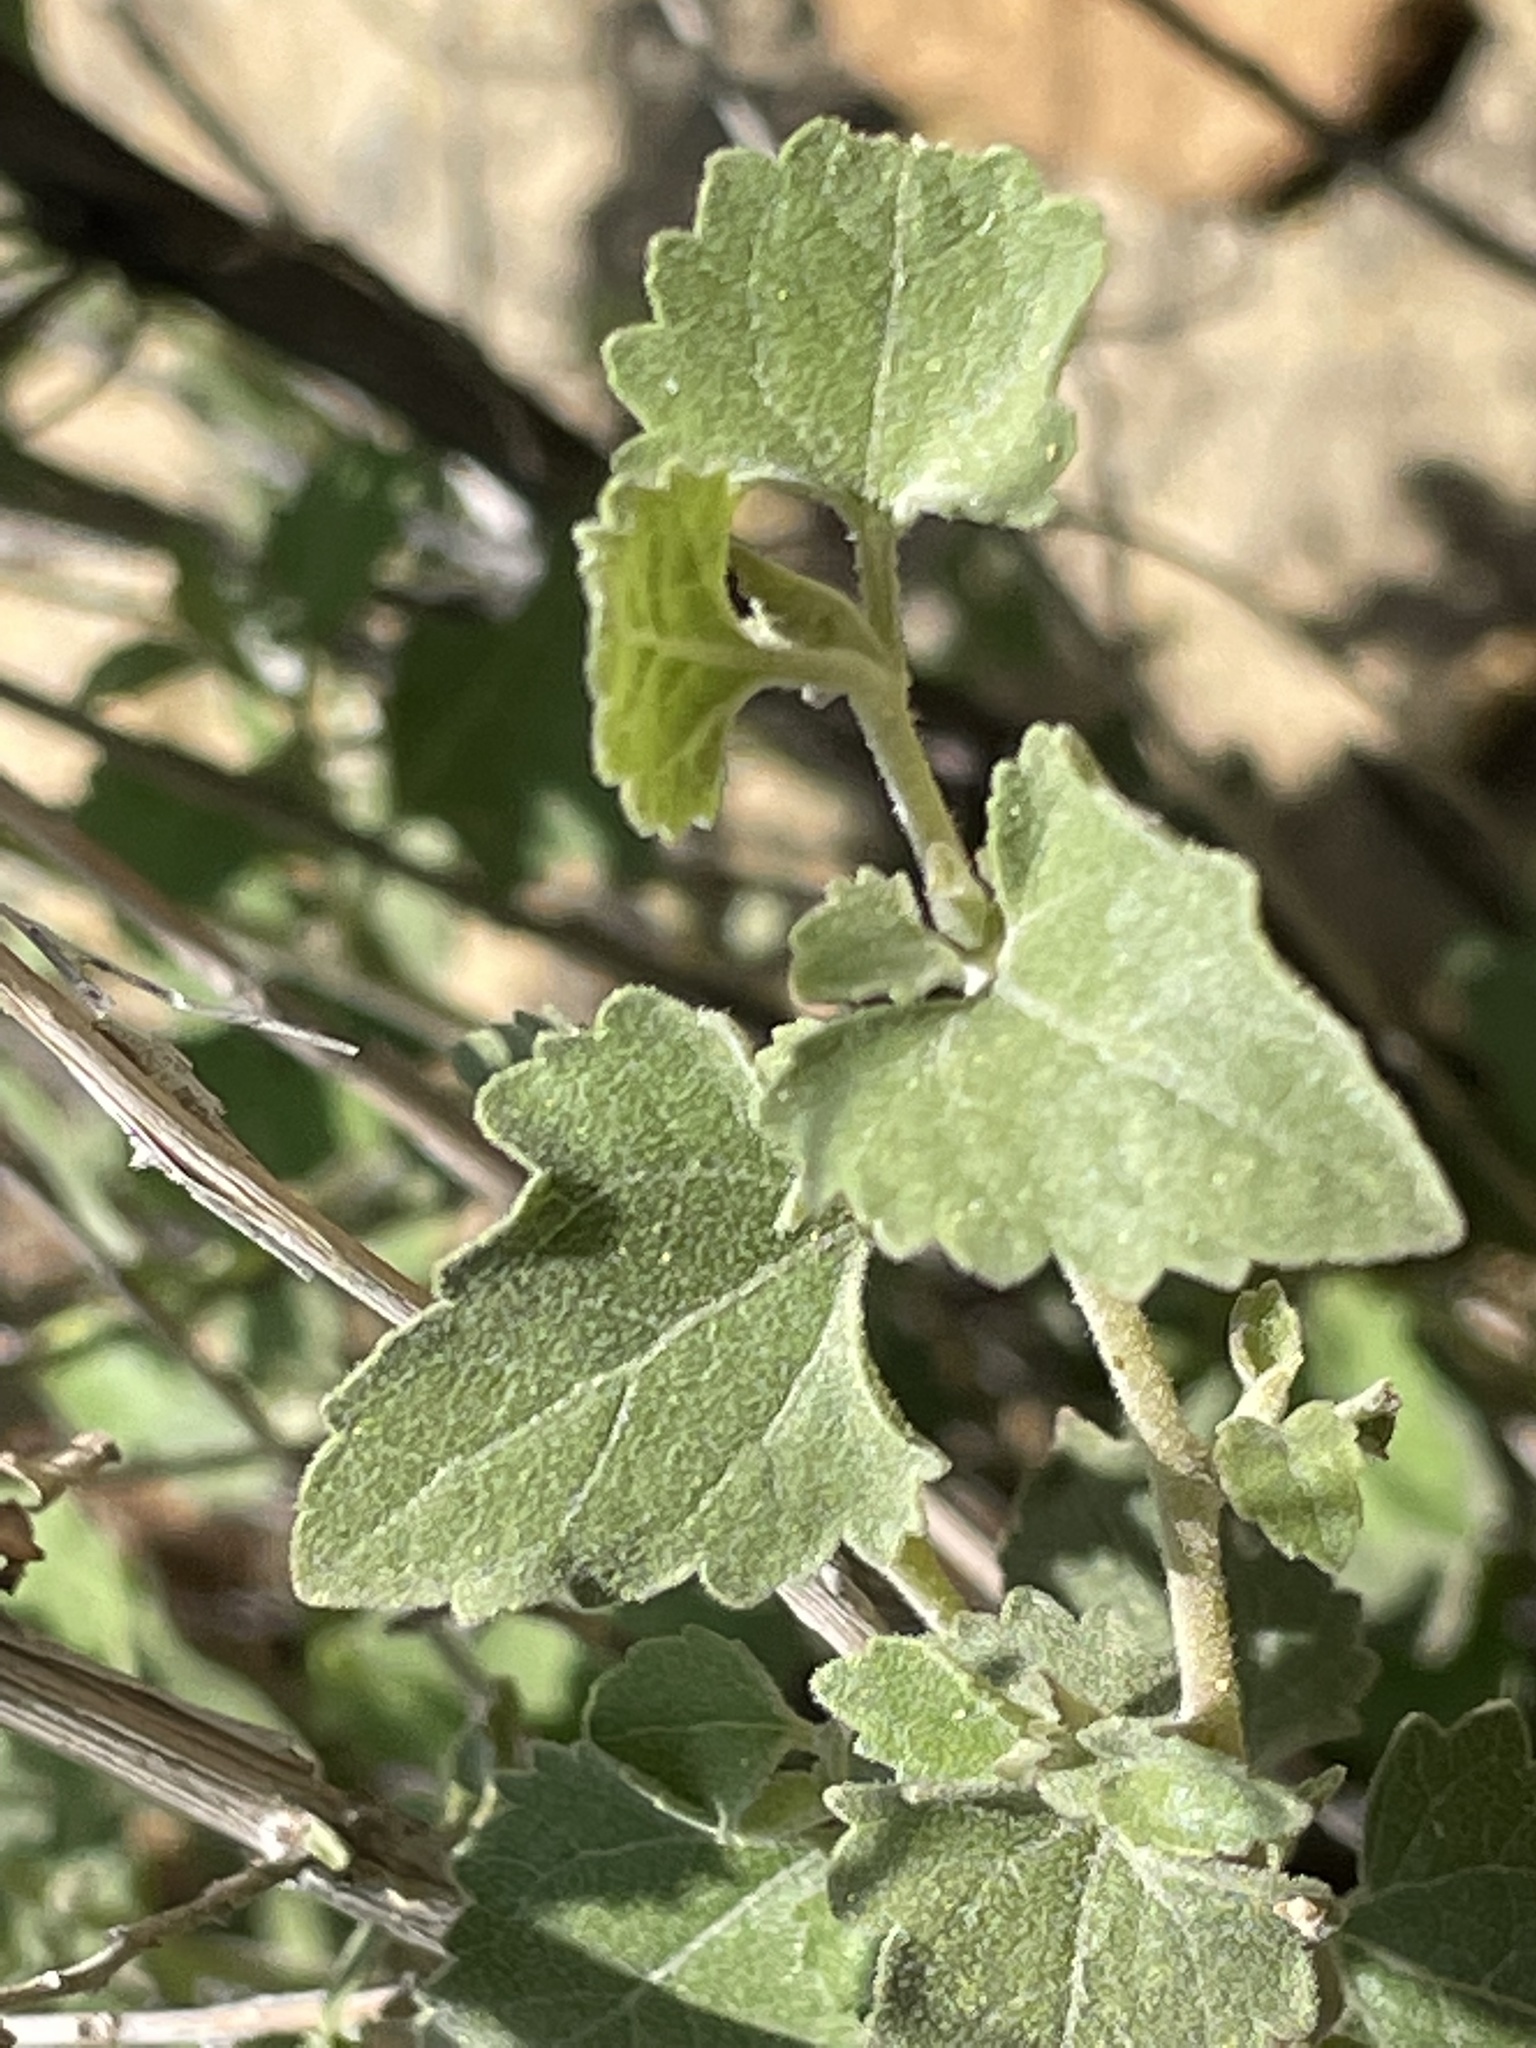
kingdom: Plantae
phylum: Tracheophyta
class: Magnoliopsida
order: Asterales
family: Asteraceae
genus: Brickellia
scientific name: Brickellia californica
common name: California brickellbush
